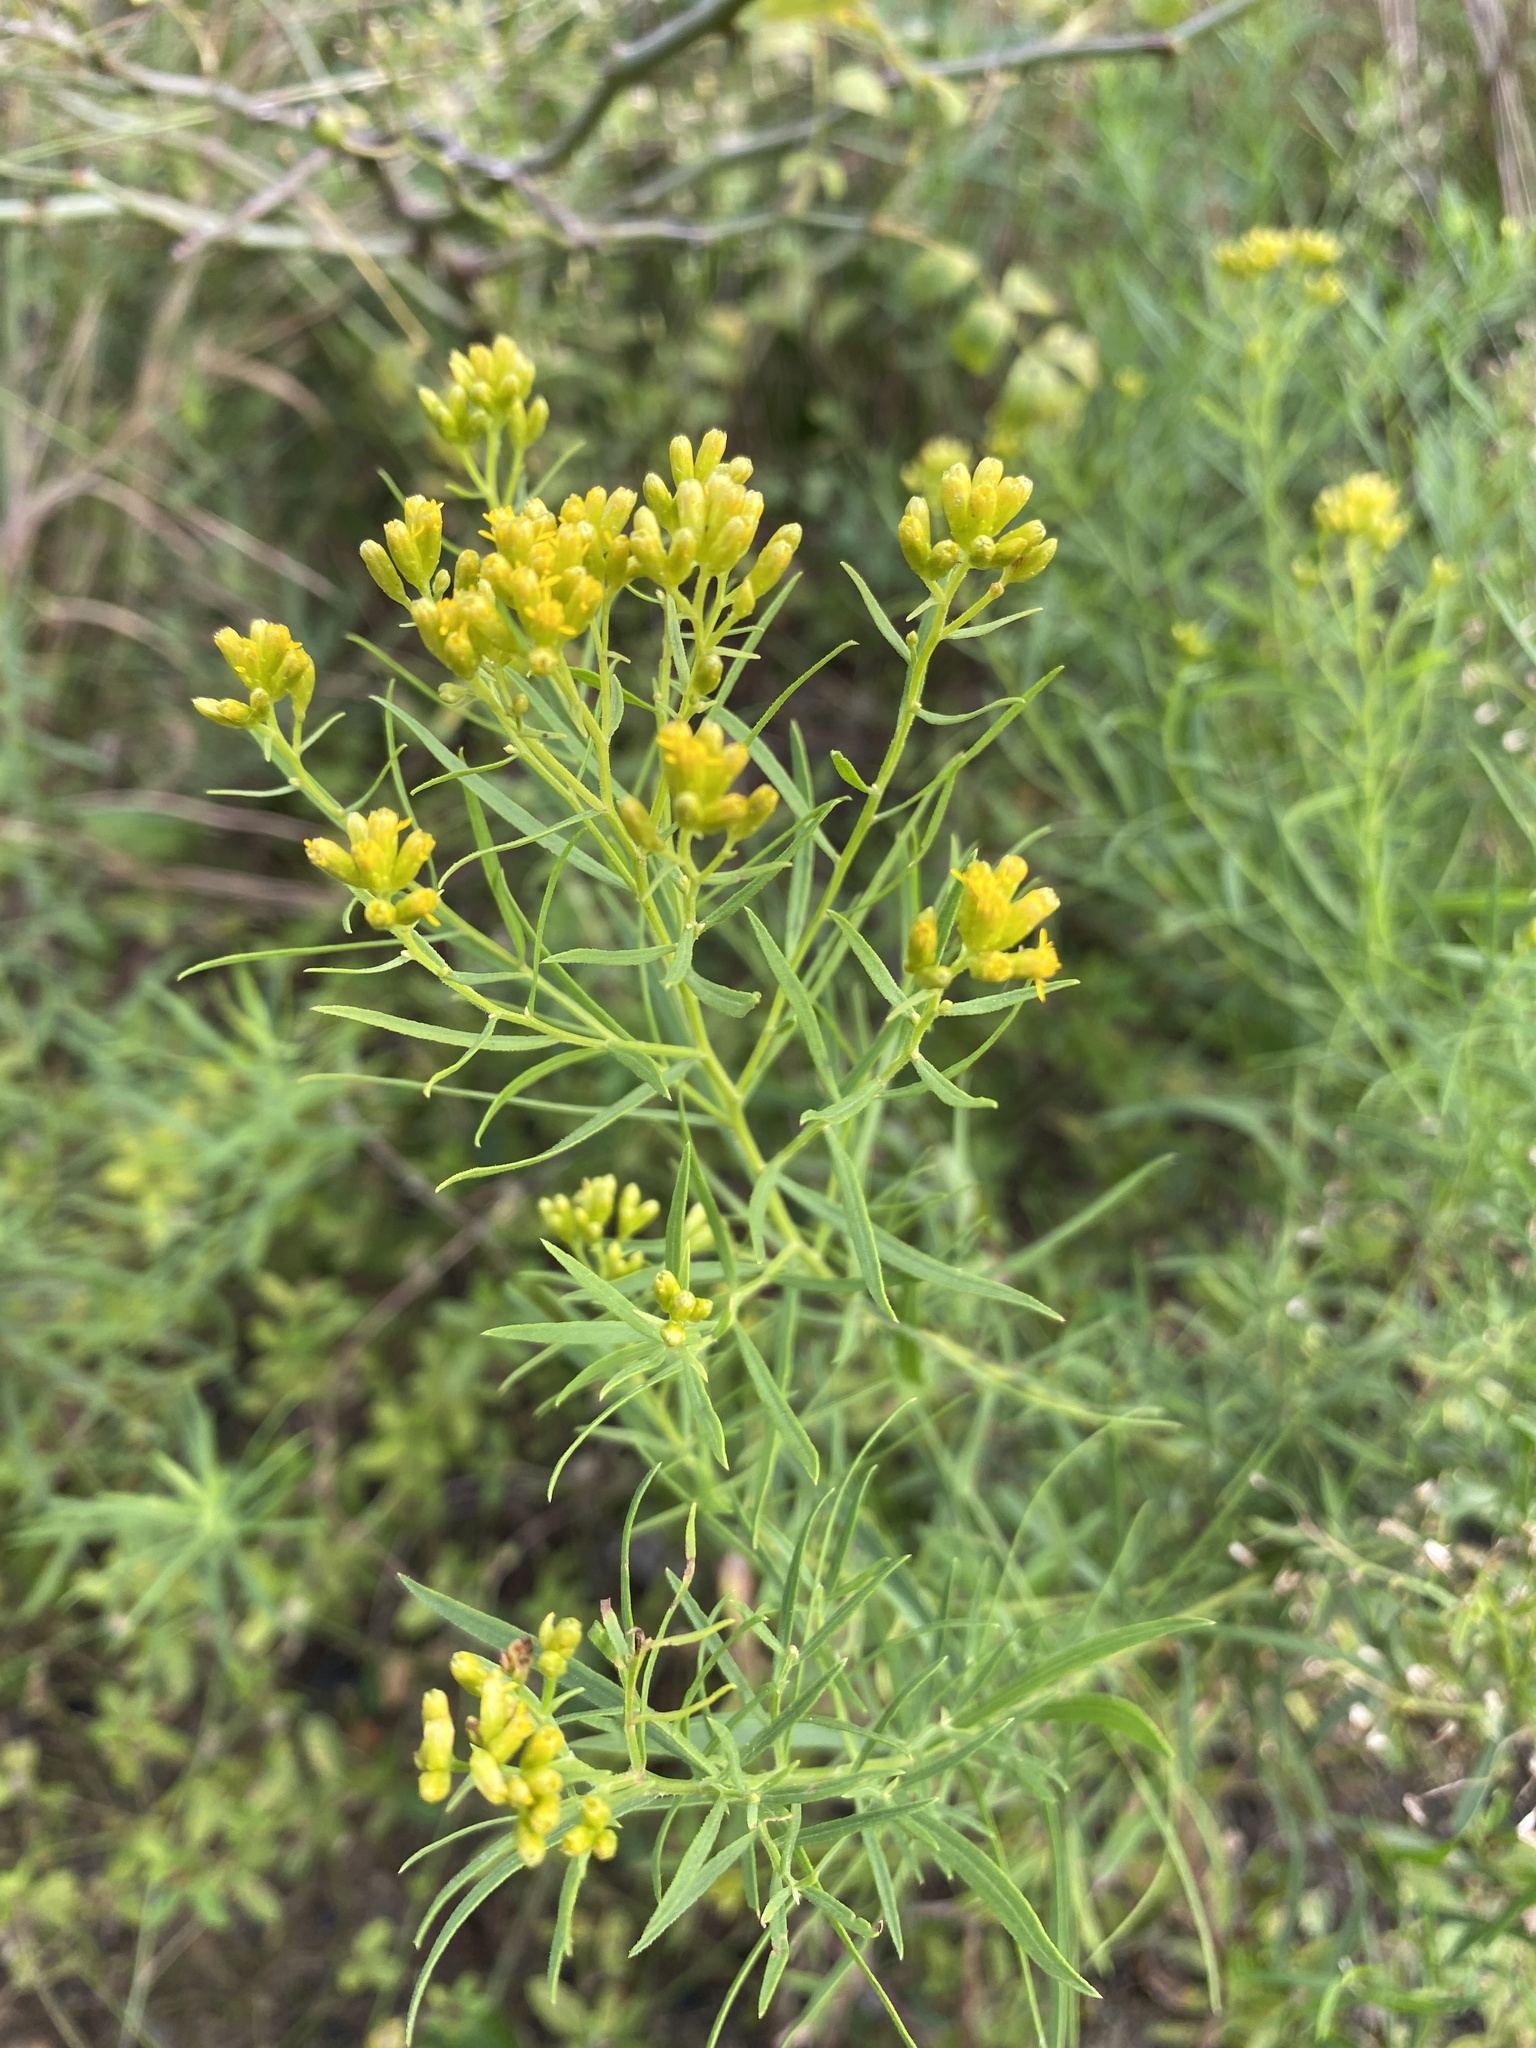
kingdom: Plantae
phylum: Tracheophyta
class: Magnoliopsida
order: Asterales
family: Asteraceae
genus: Euthamia
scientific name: Euthamia caroliniana
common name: Coastal plain goldentop
